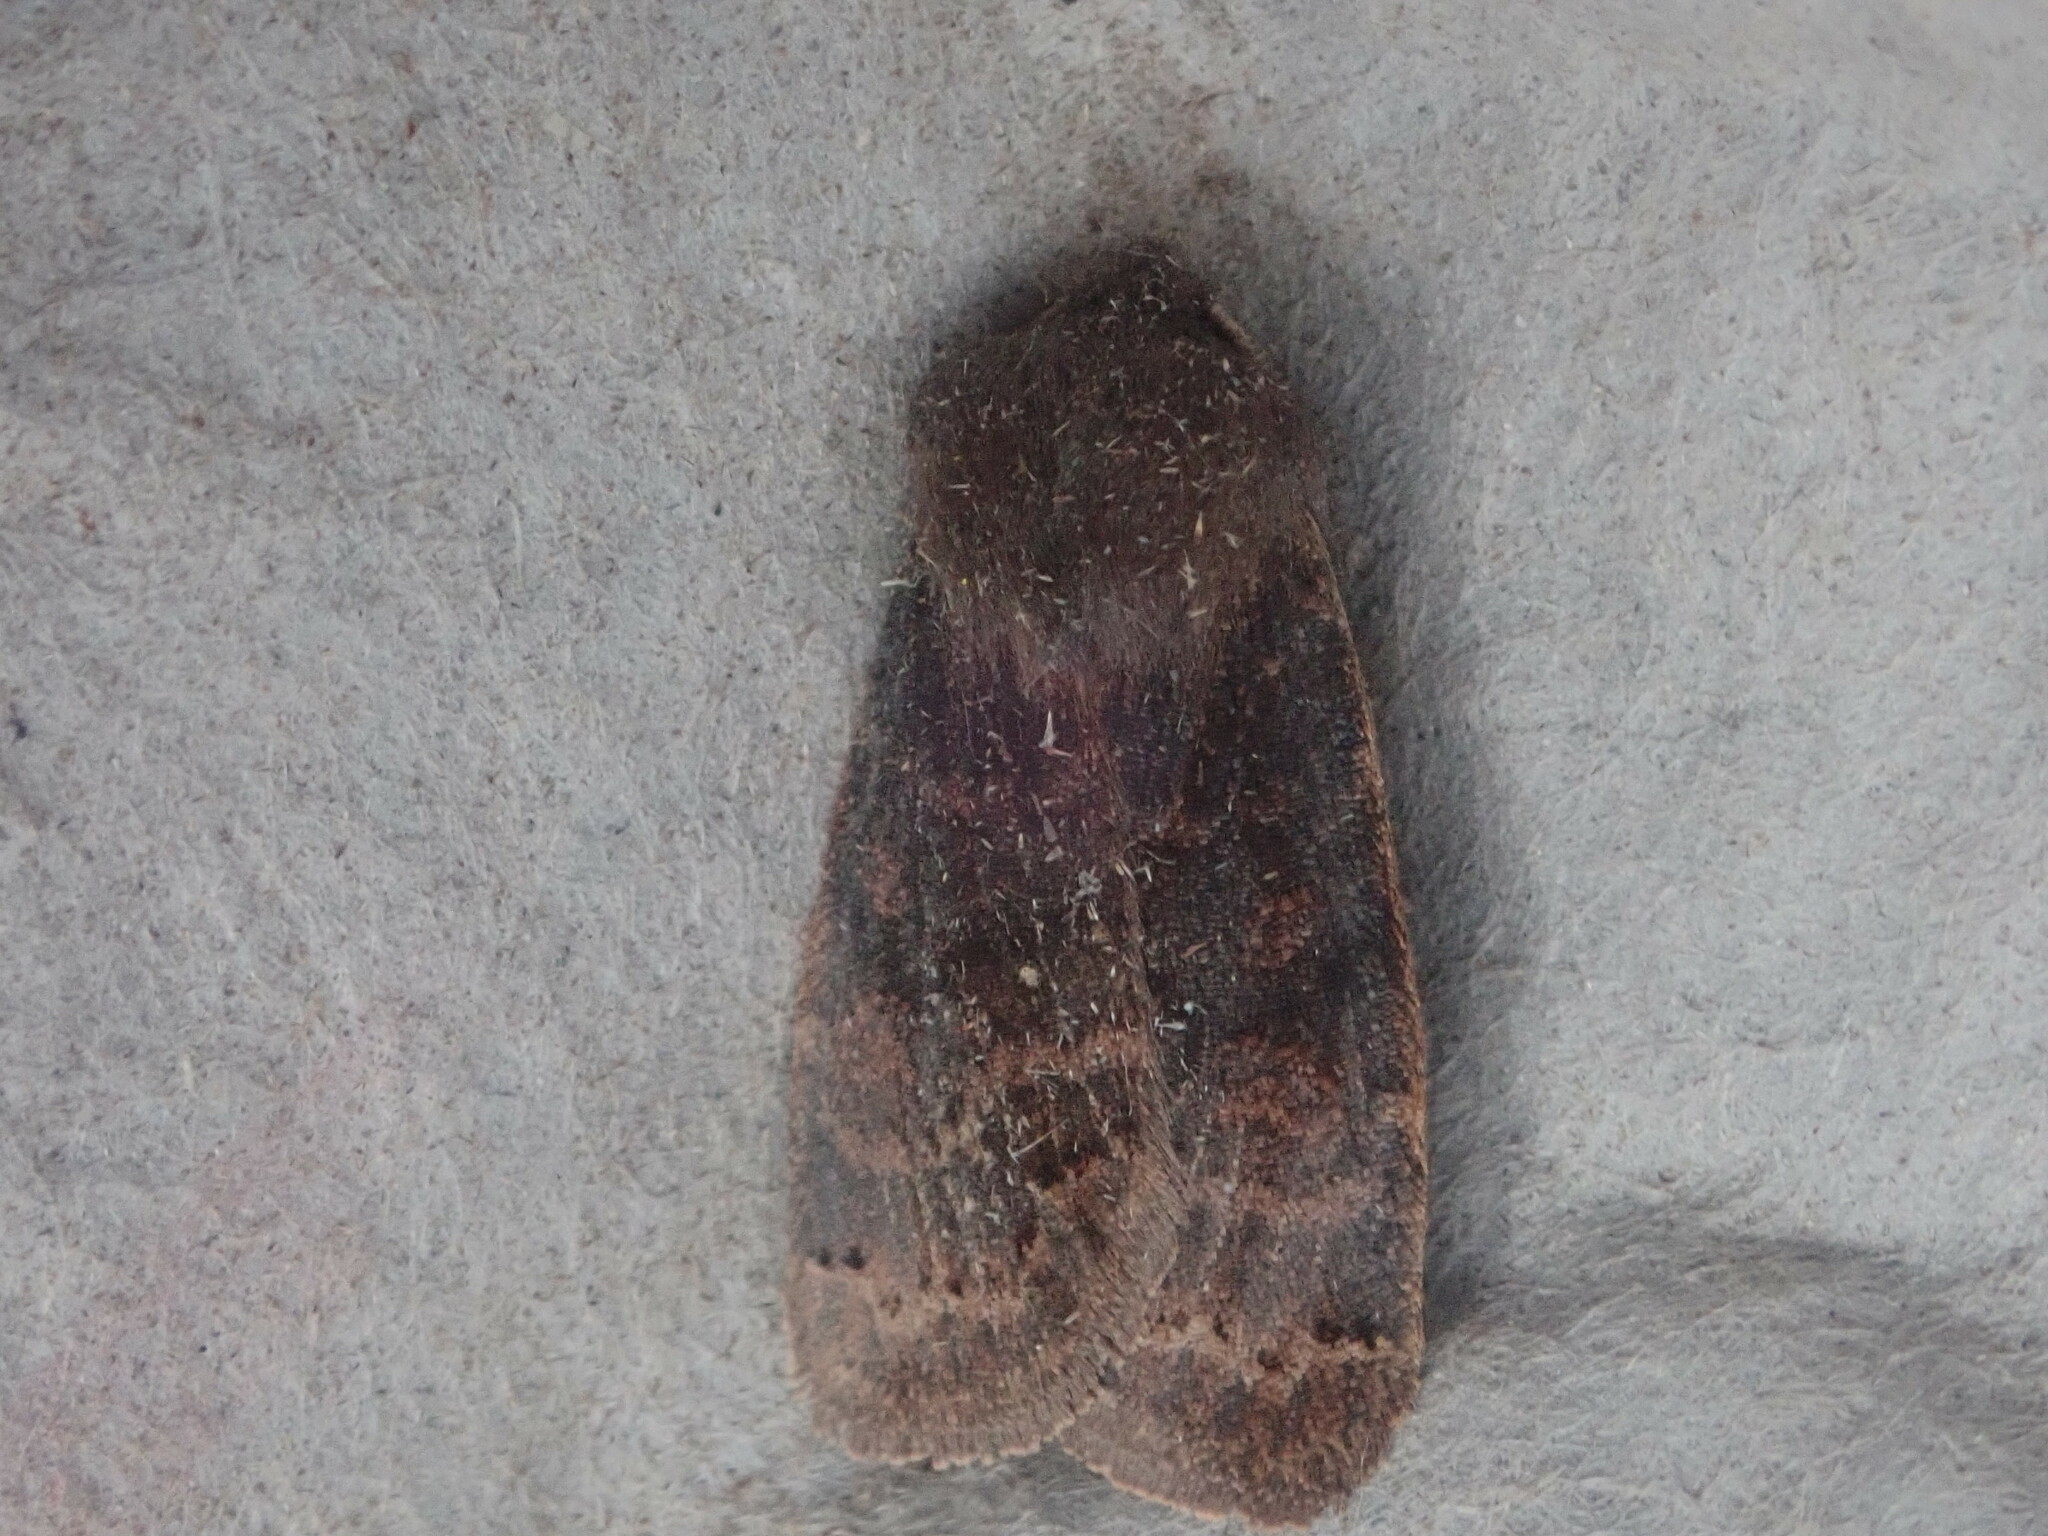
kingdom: Animalia
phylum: Arthropoda
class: Insecta
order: Lepidoptera
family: Noctuidae
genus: Homoglaea
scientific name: Homoglaea hircina
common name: Goat sallow
